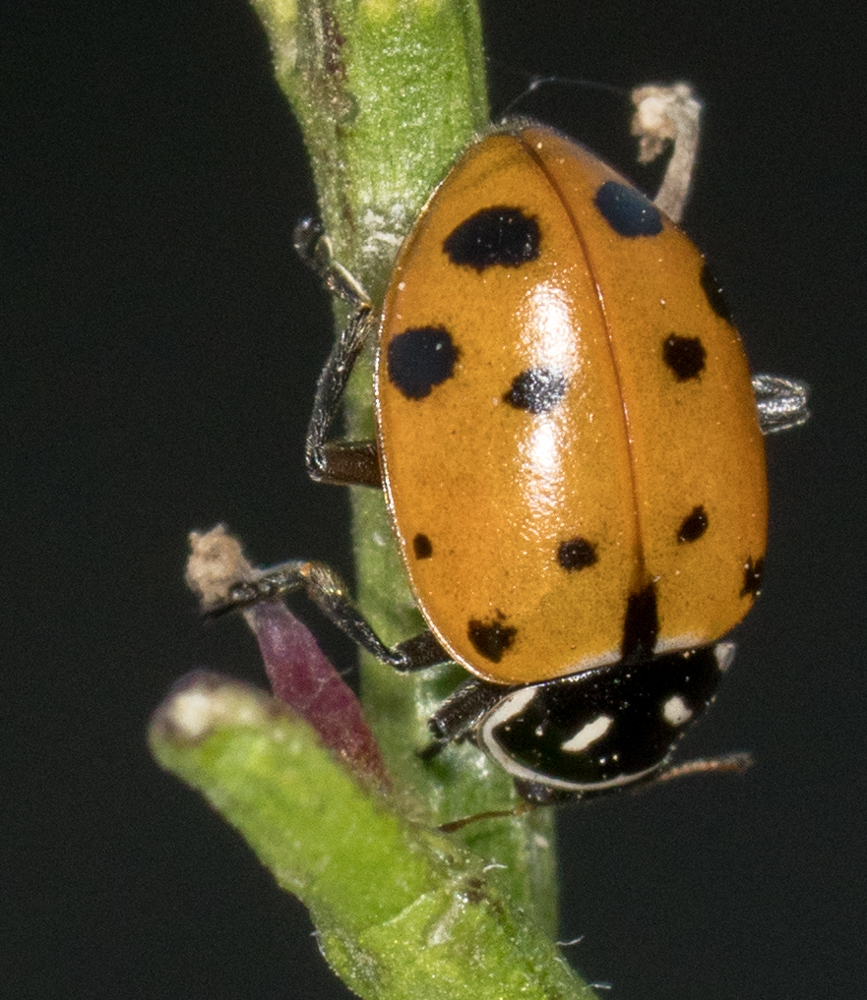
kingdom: Animalia
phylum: Arthropoda
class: Insecta
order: Coleoptera
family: Coccinellidae
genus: Hippodamia
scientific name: Hippodamia convergens
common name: Convergent lady beetle
